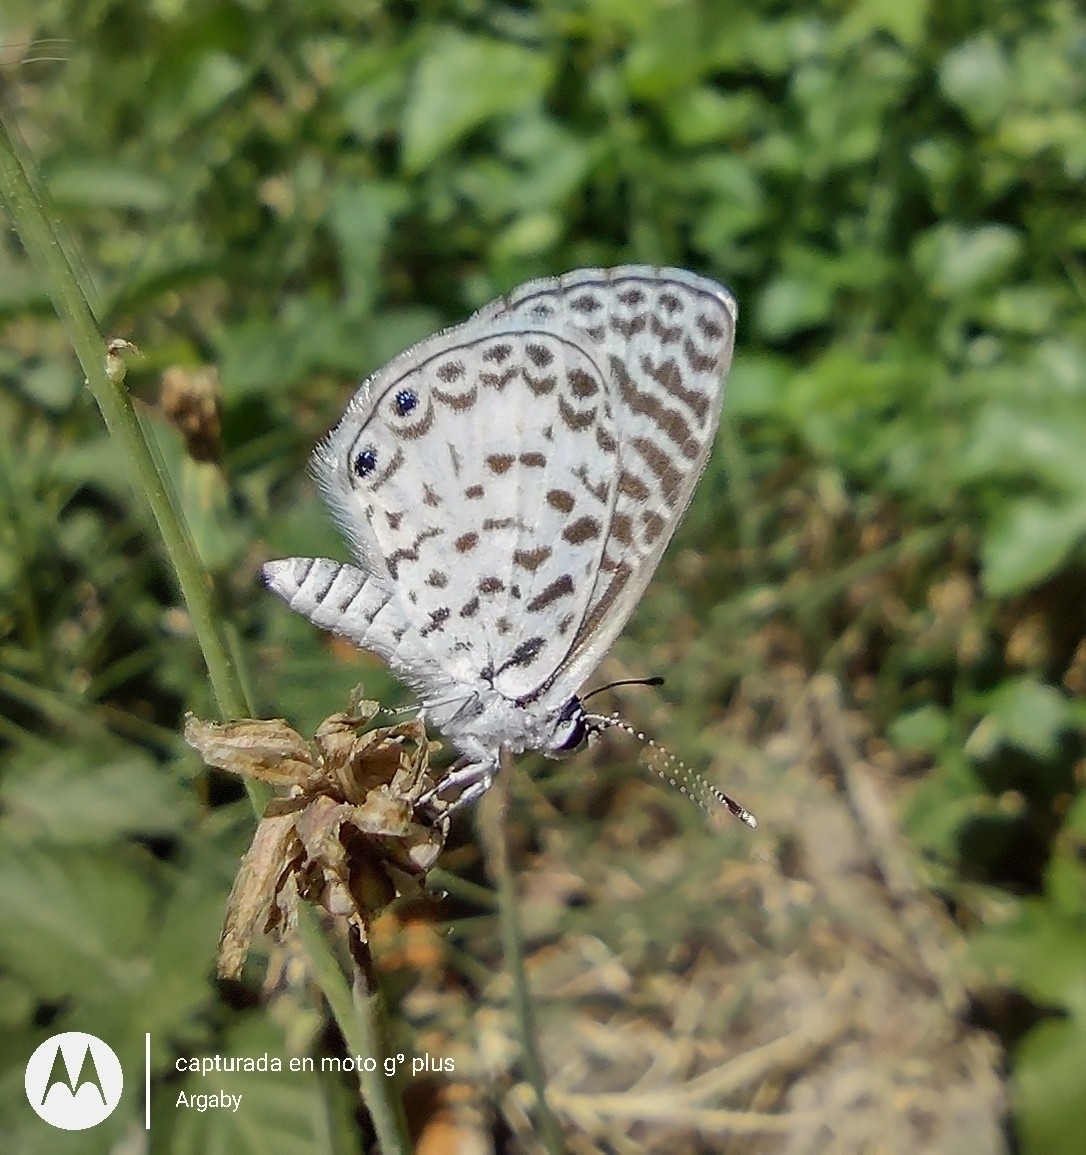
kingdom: Animalia
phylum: Arthropoda
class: Insecta
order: Lepidoptera
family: Lycaenidae
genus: Leptotes
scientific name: Leptotes cassius
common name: Cassius blue
